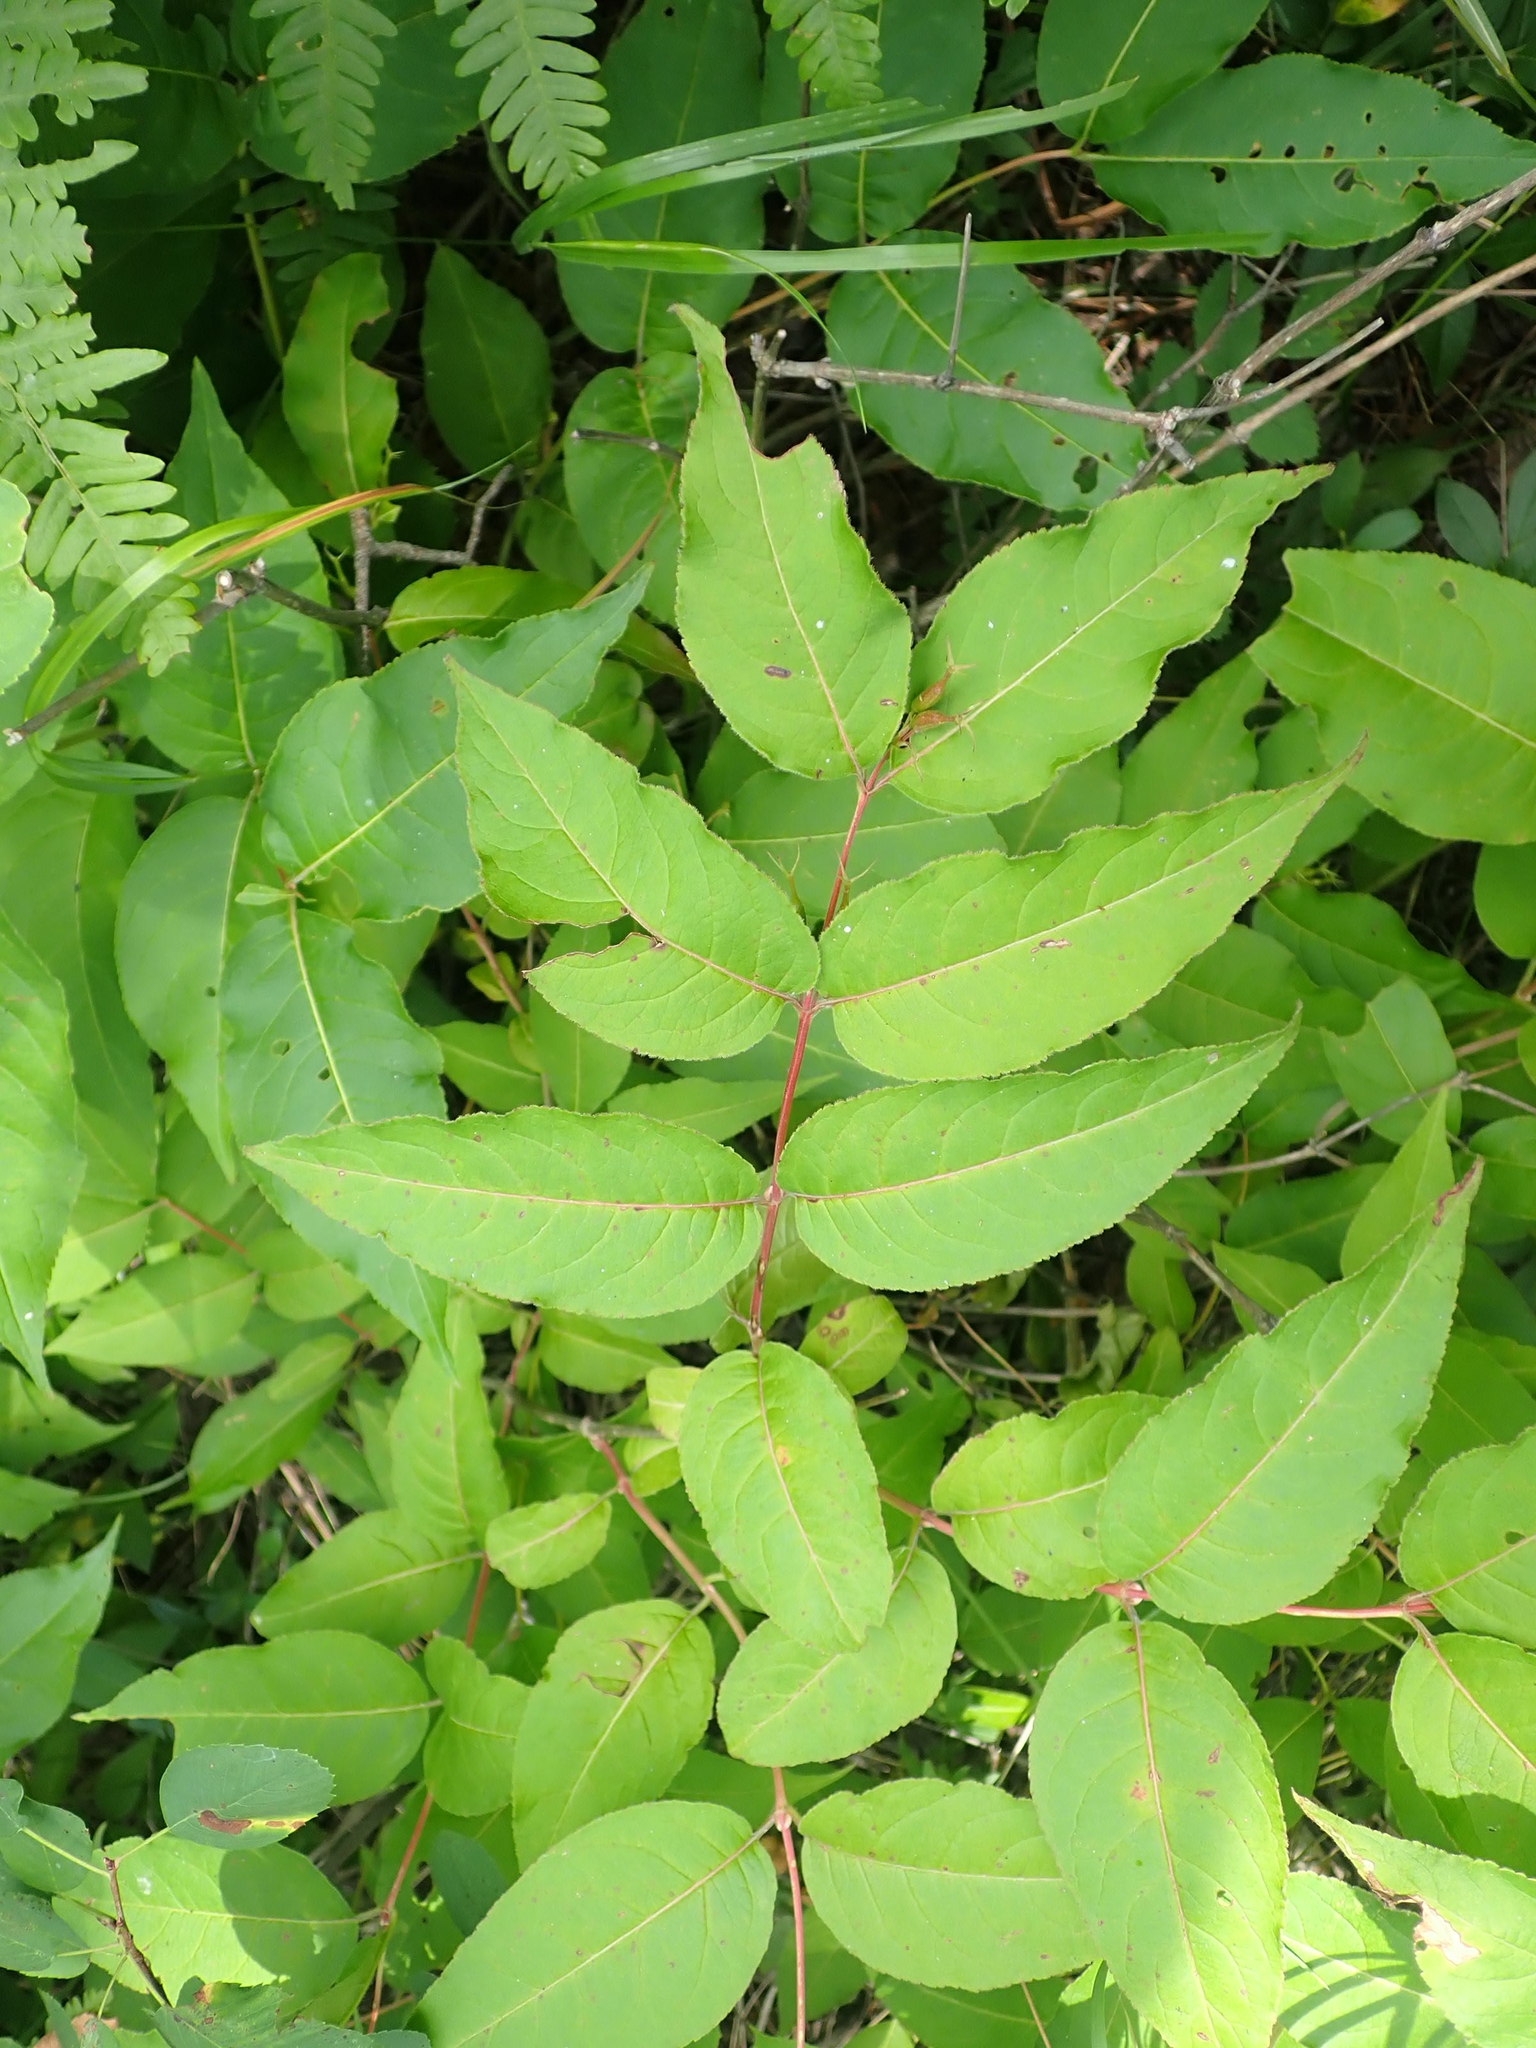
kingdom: Plantae
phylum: Tracheophyta
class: Magnoliopsida
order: Dipsacales
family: Caprifoliaceae
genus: Diervilla
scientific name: Diervilla lonicera
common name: Bush-honeysuckle
